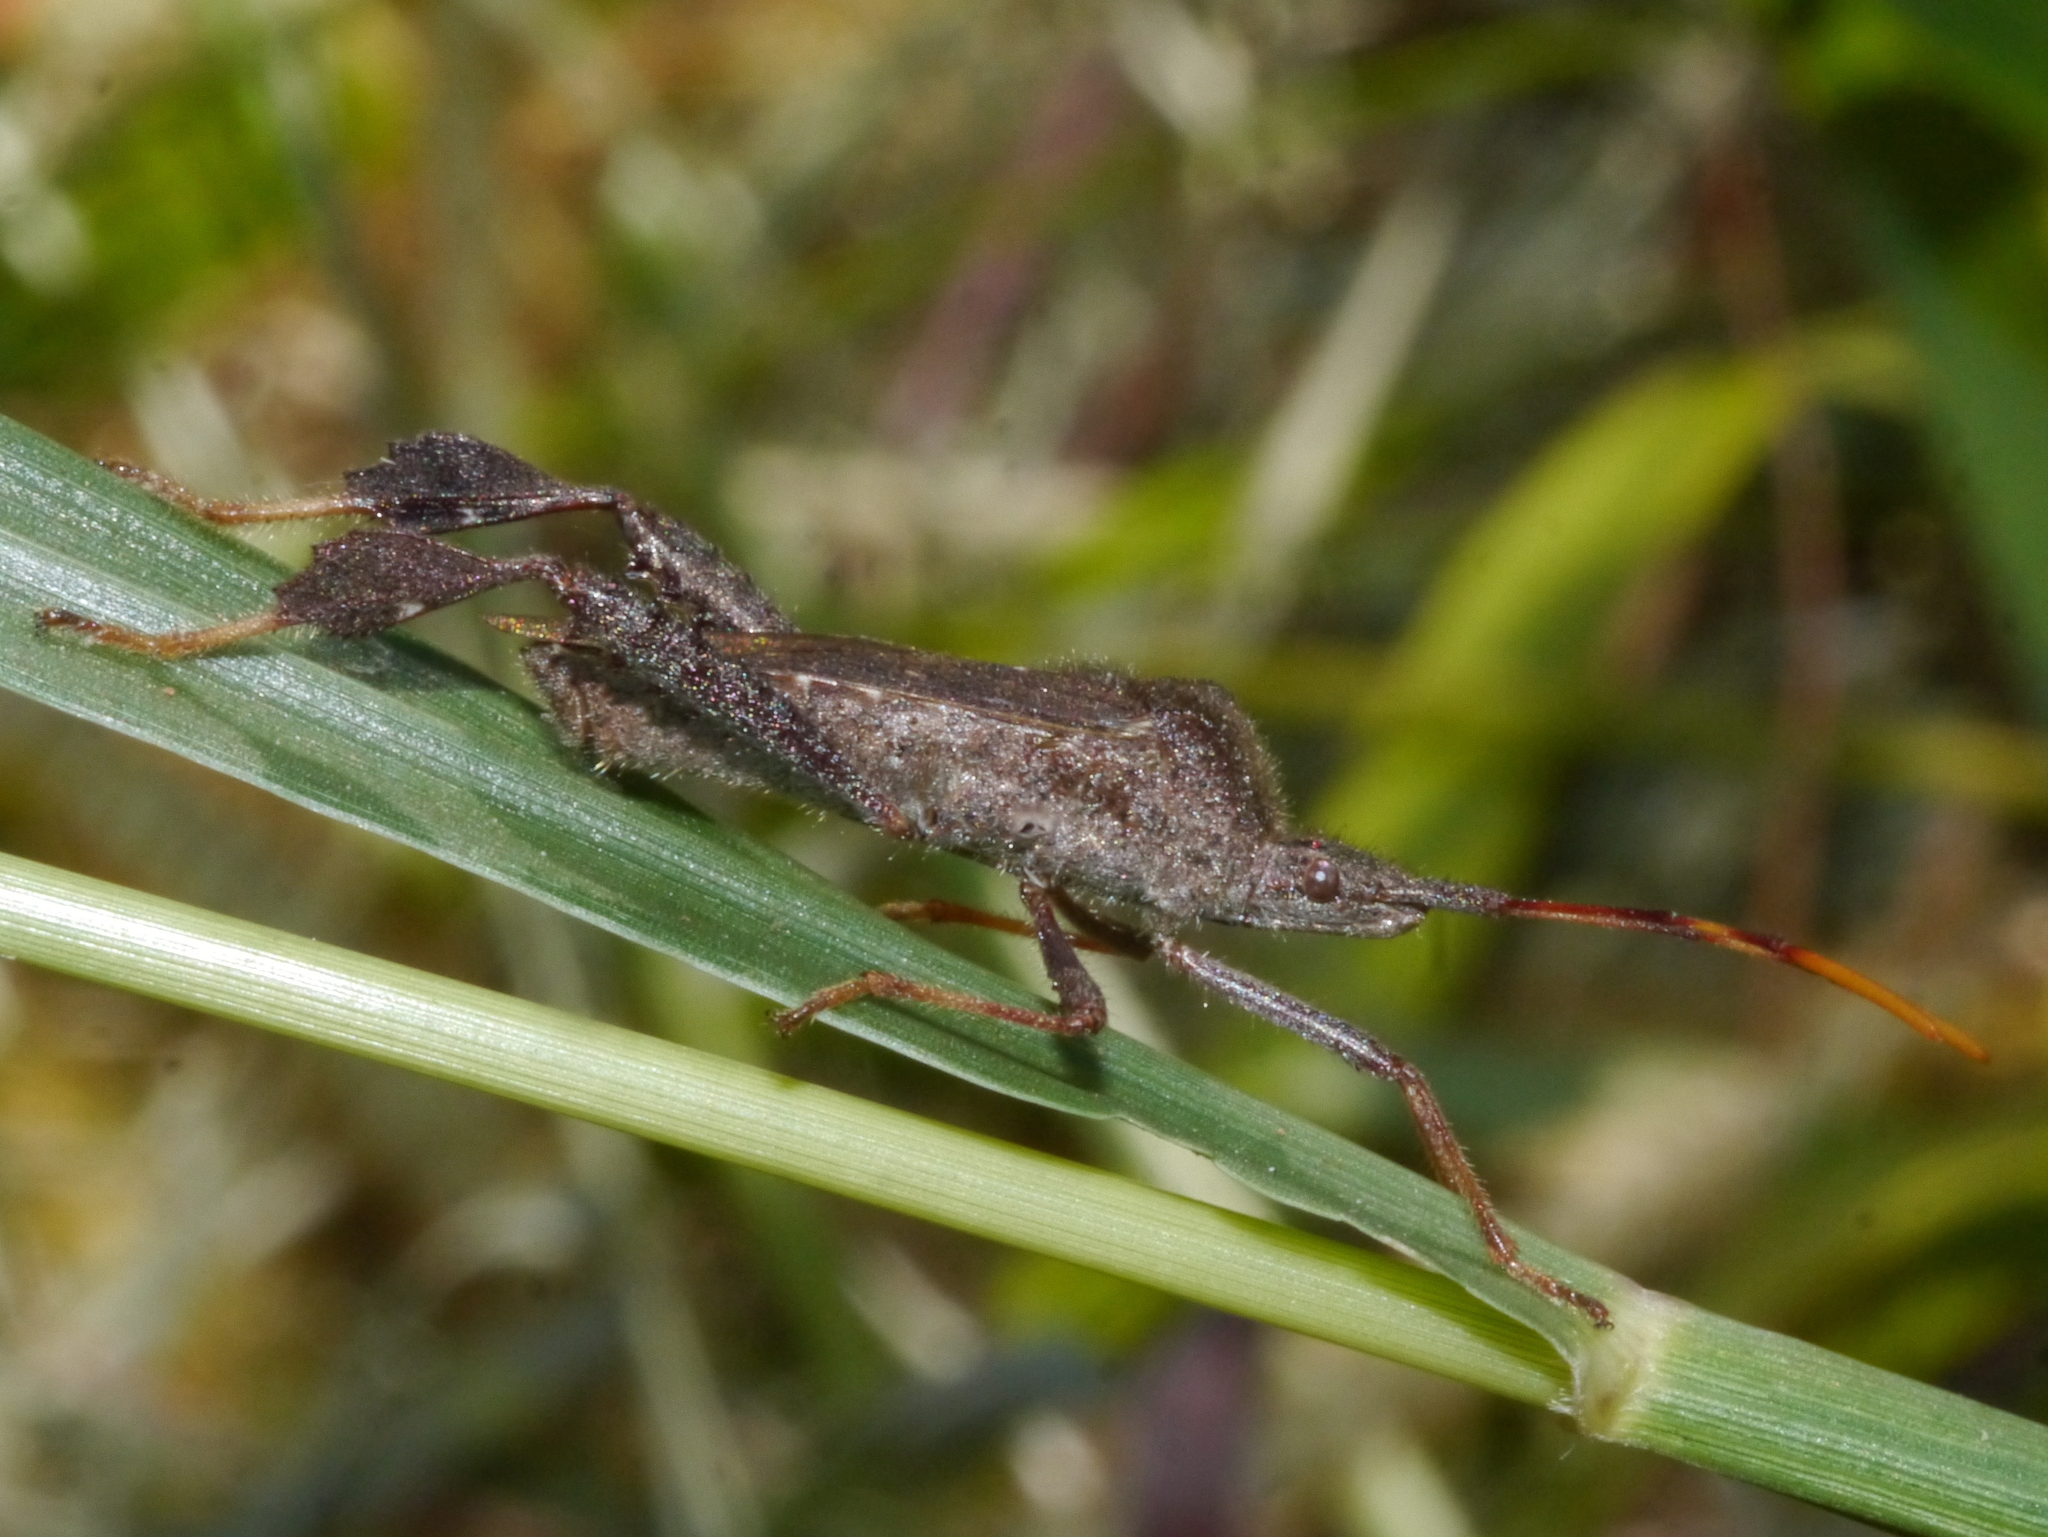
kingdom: Animalia
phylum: Arthropoda
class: Insecta
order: Hemiptera
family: Coreidae
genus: Leptoglossus
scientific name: Leptoglossus oppositus
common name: Northern leaf-footed bug
